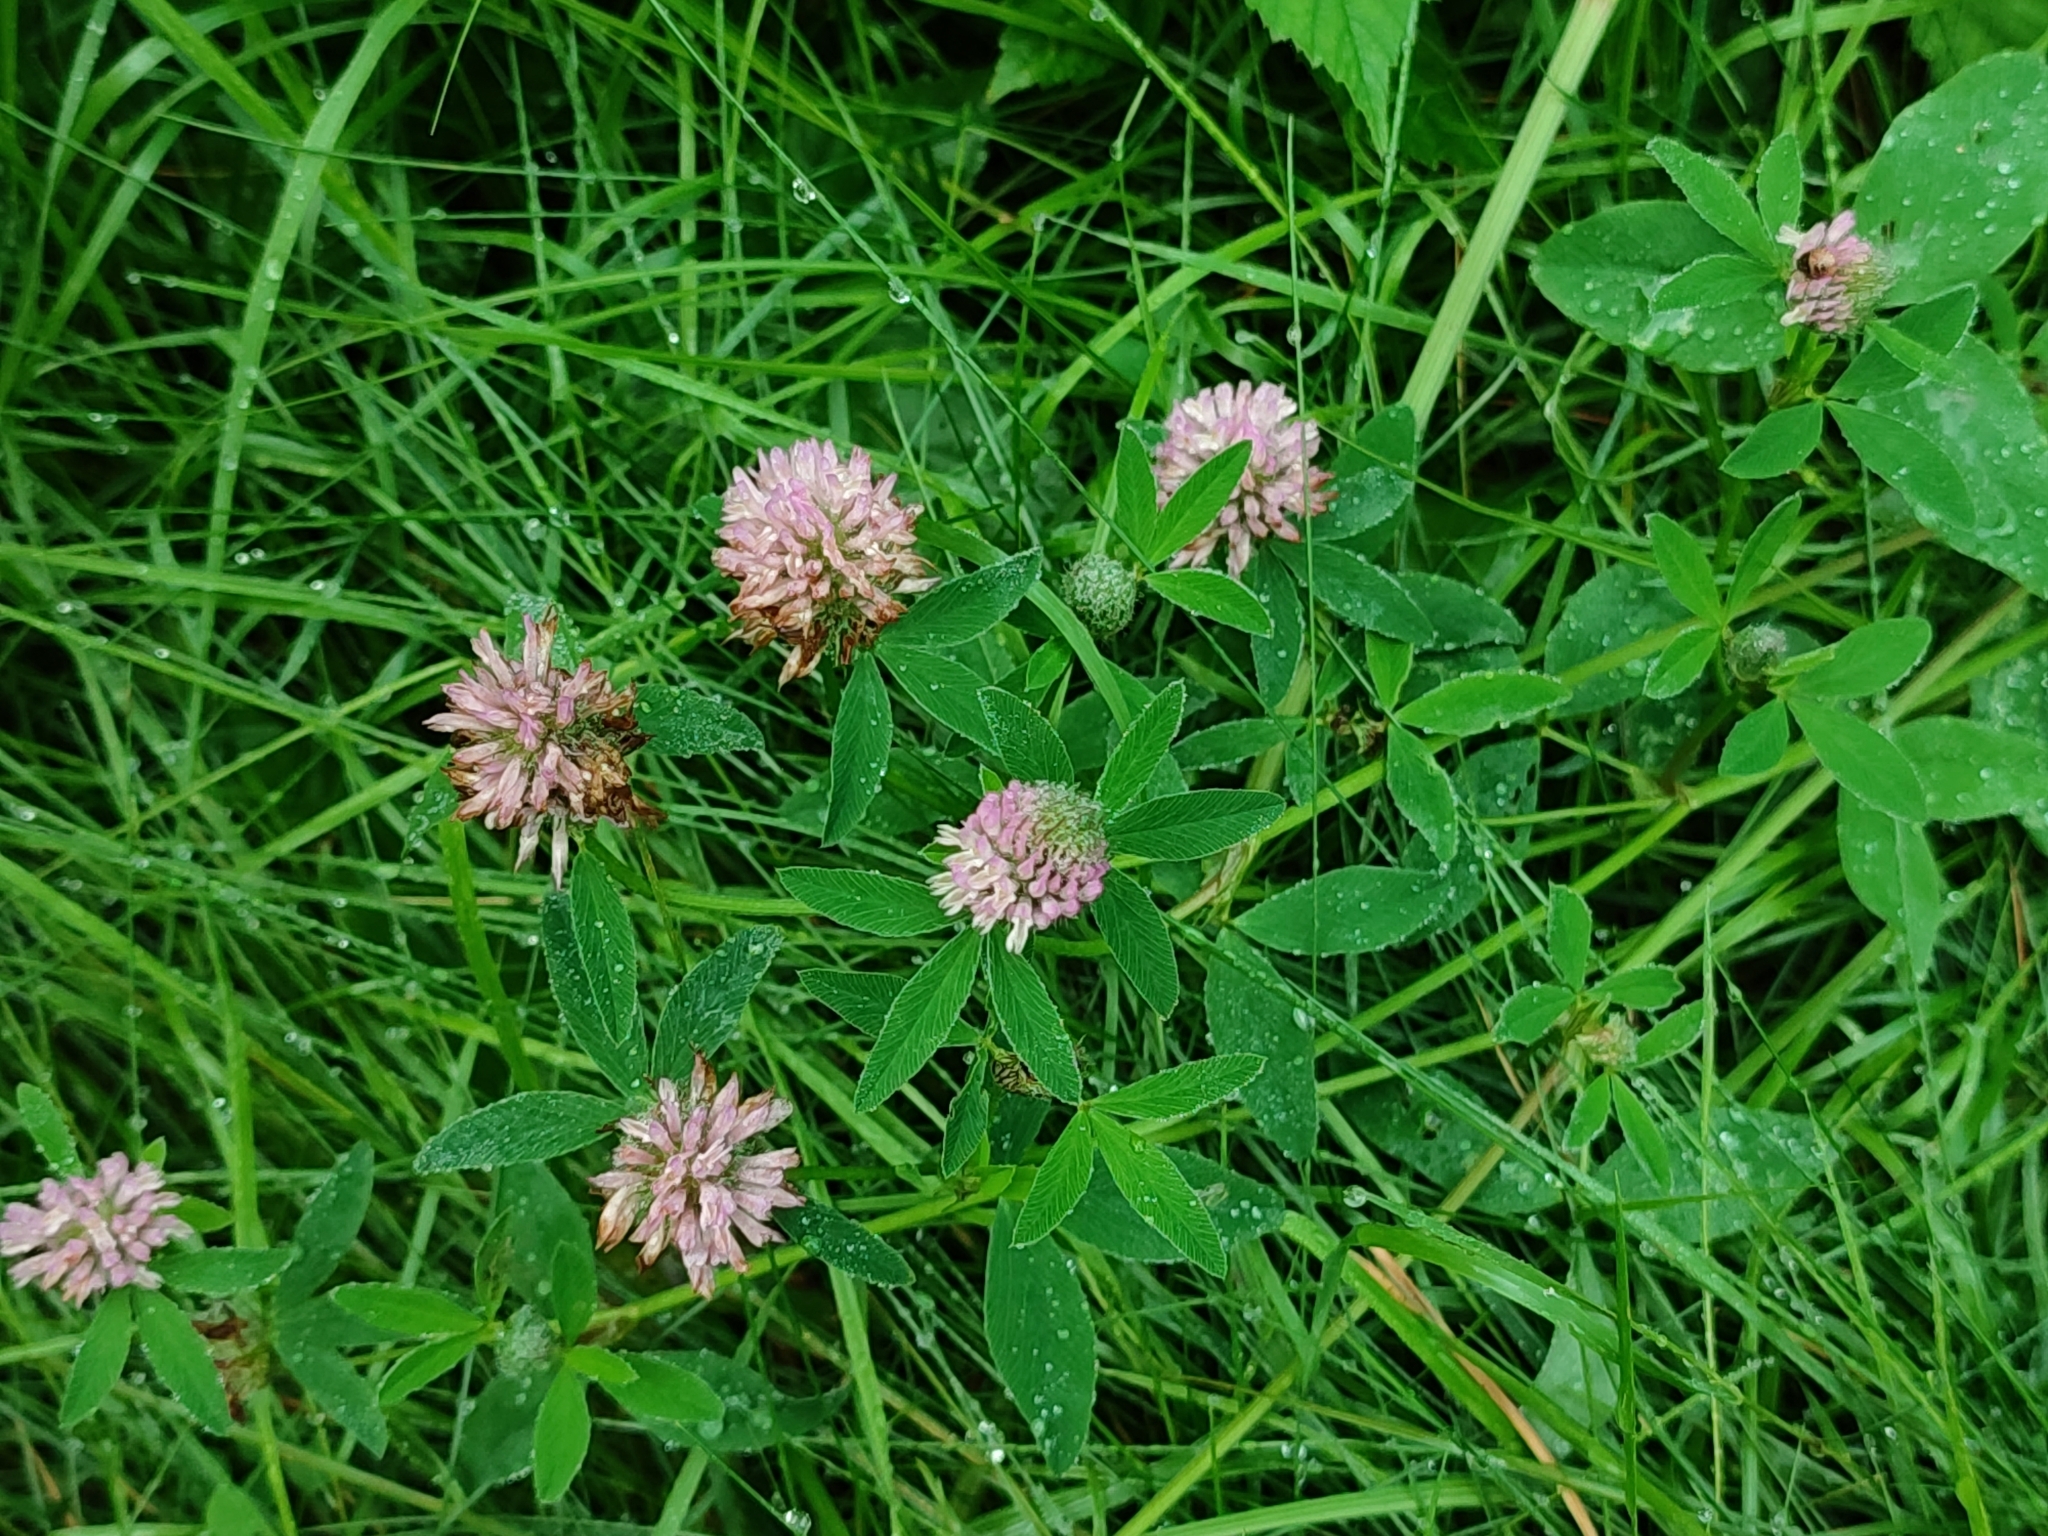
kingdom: Plantae
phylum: Tracheophyta
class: Magnoliopsida
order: Fabales
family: Fabaceae
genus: Trifolium
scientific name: Trifolium pratense
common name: Red clover
